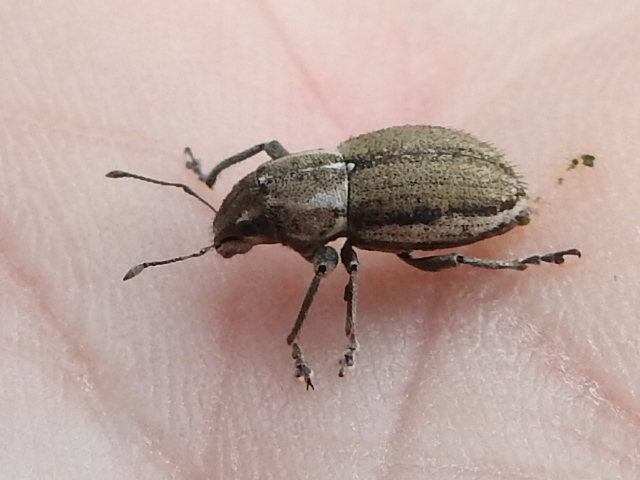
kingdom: Animalia
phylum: Arthropoda
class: Insecta
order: Coleoptera
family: Curculionidae
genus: Naupactus
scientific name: Naupactus peregrinus
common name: Whitefringed beetle
